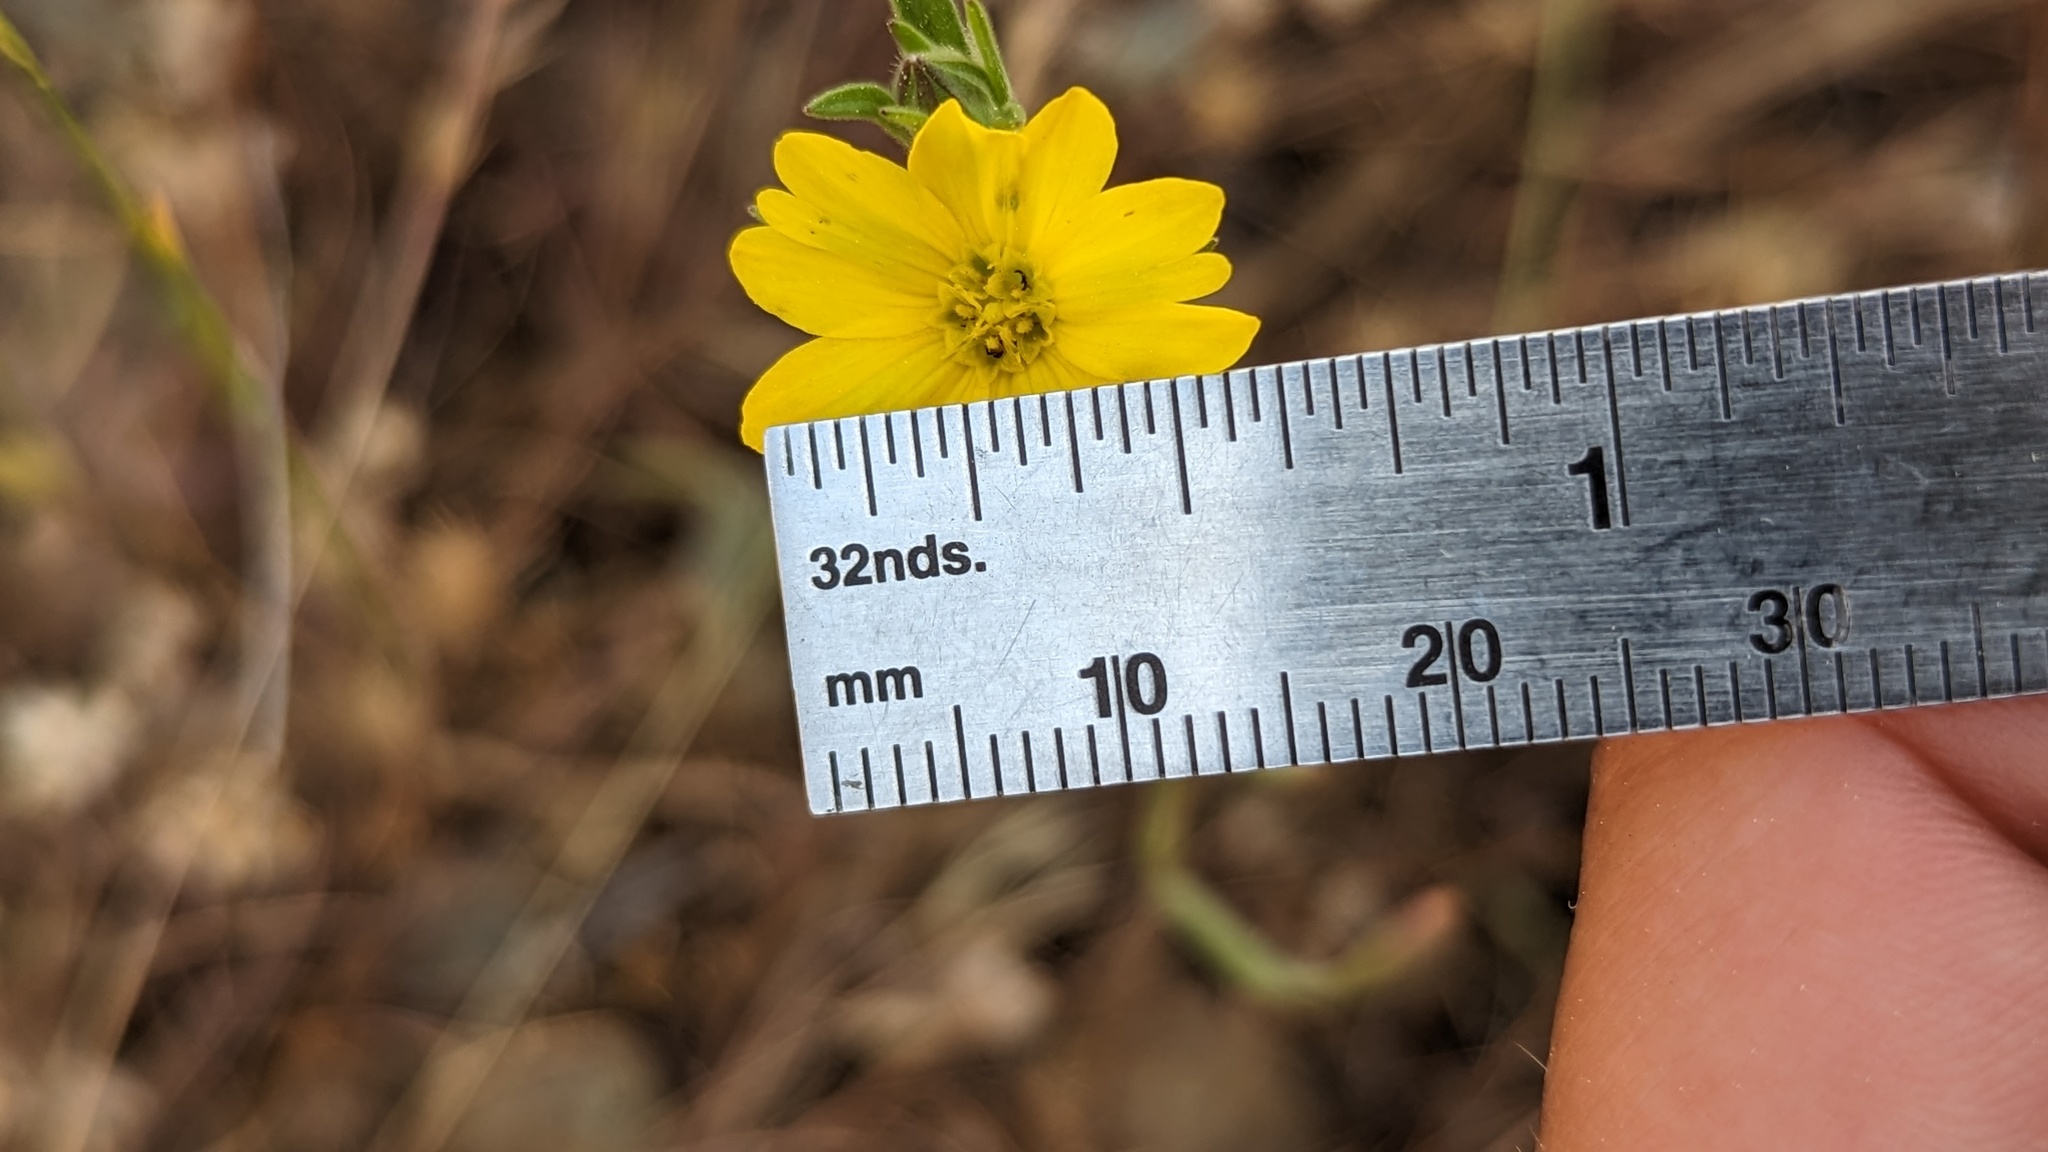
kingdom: Plantae
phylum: Tracheophyta
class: Magnoliopsida
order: Asterales
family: Asteraceae
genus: Lagophylla
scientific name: Lagophylla glandulosa
